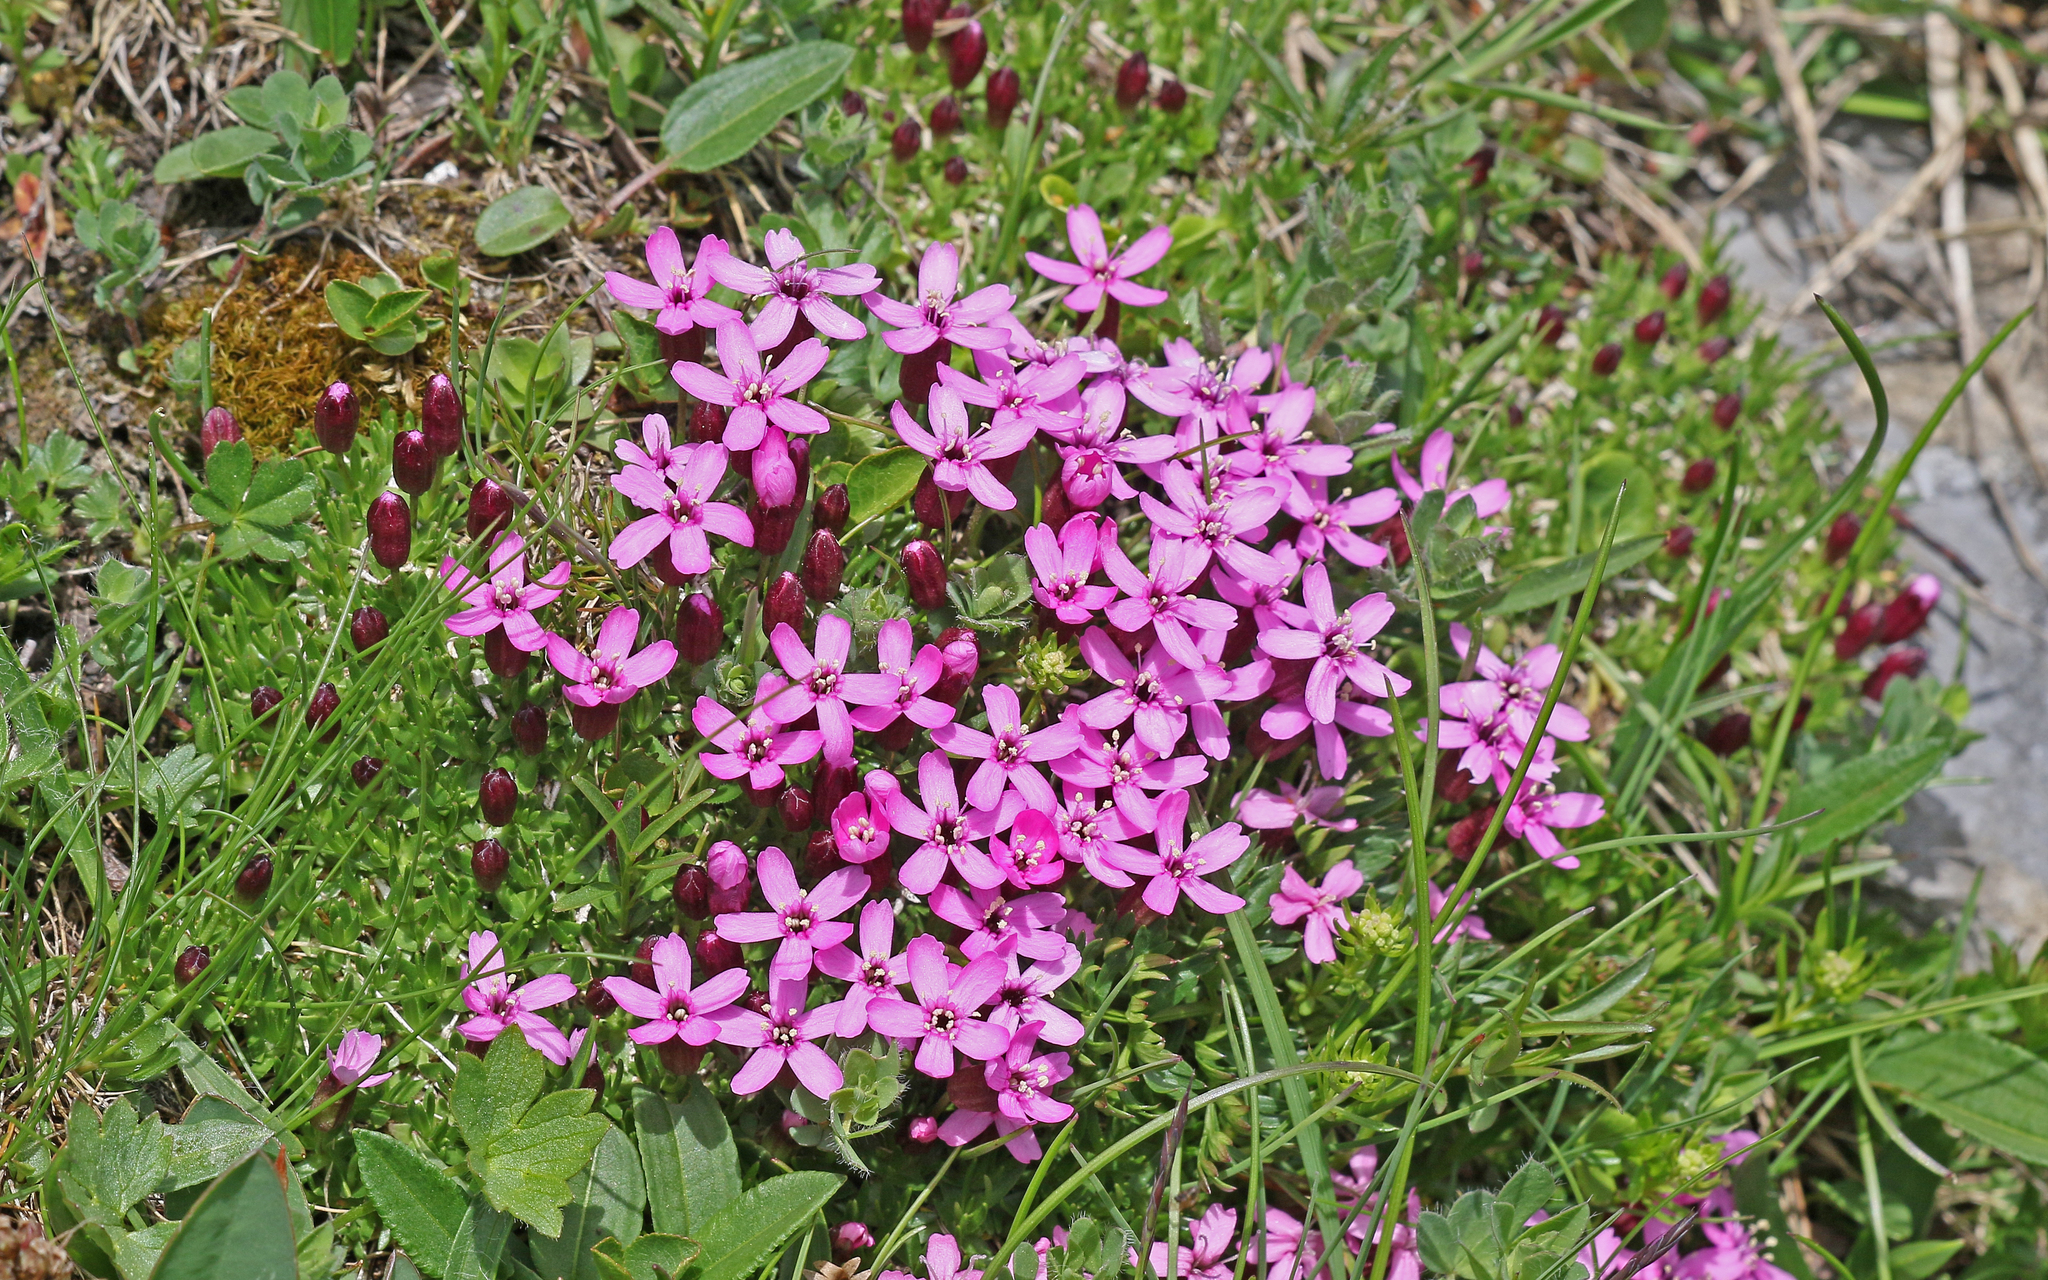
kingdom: Plantae
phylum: Tracheophyta
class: Magnoliopsida
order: Caryophyllales
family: Caryophyllaceae
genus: Silene
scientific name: Silene acaulis
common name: Moss campion
